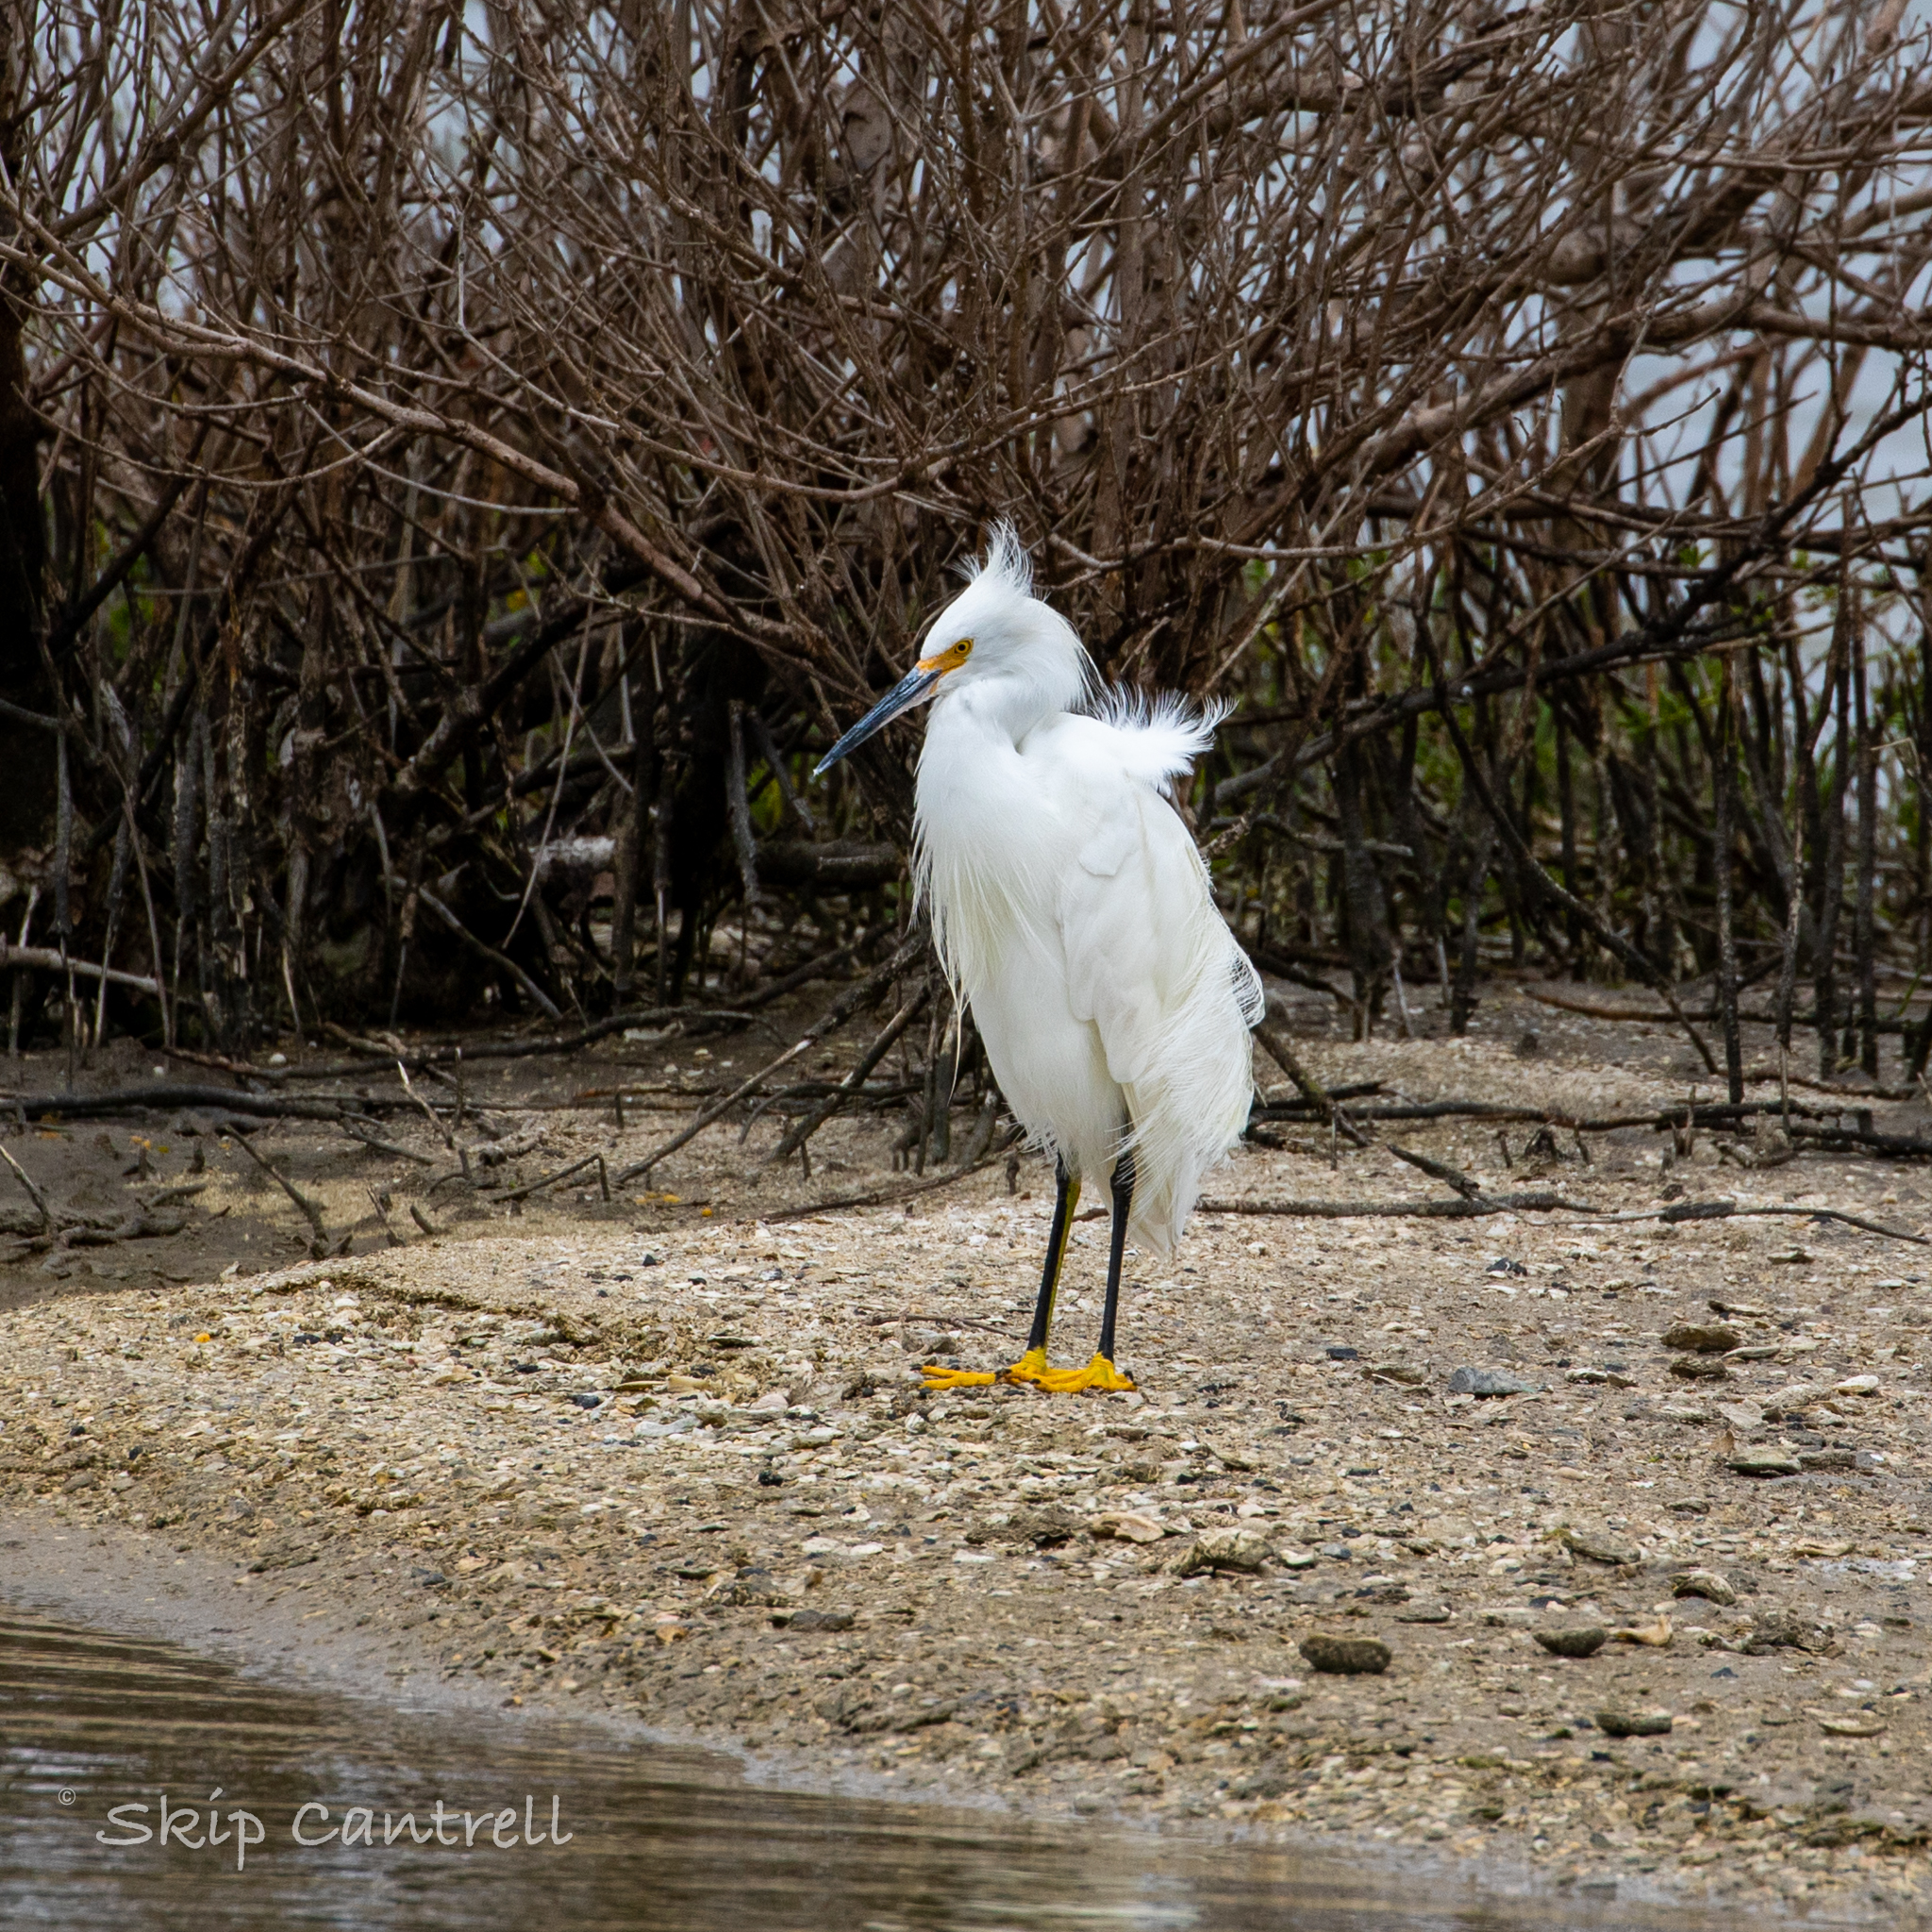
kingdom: Animalia
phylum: Chordata
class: Aves
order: Pelecaniformes
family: Ardeidae
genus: Egretta
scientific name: Egretta thula
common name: Snowy egret
